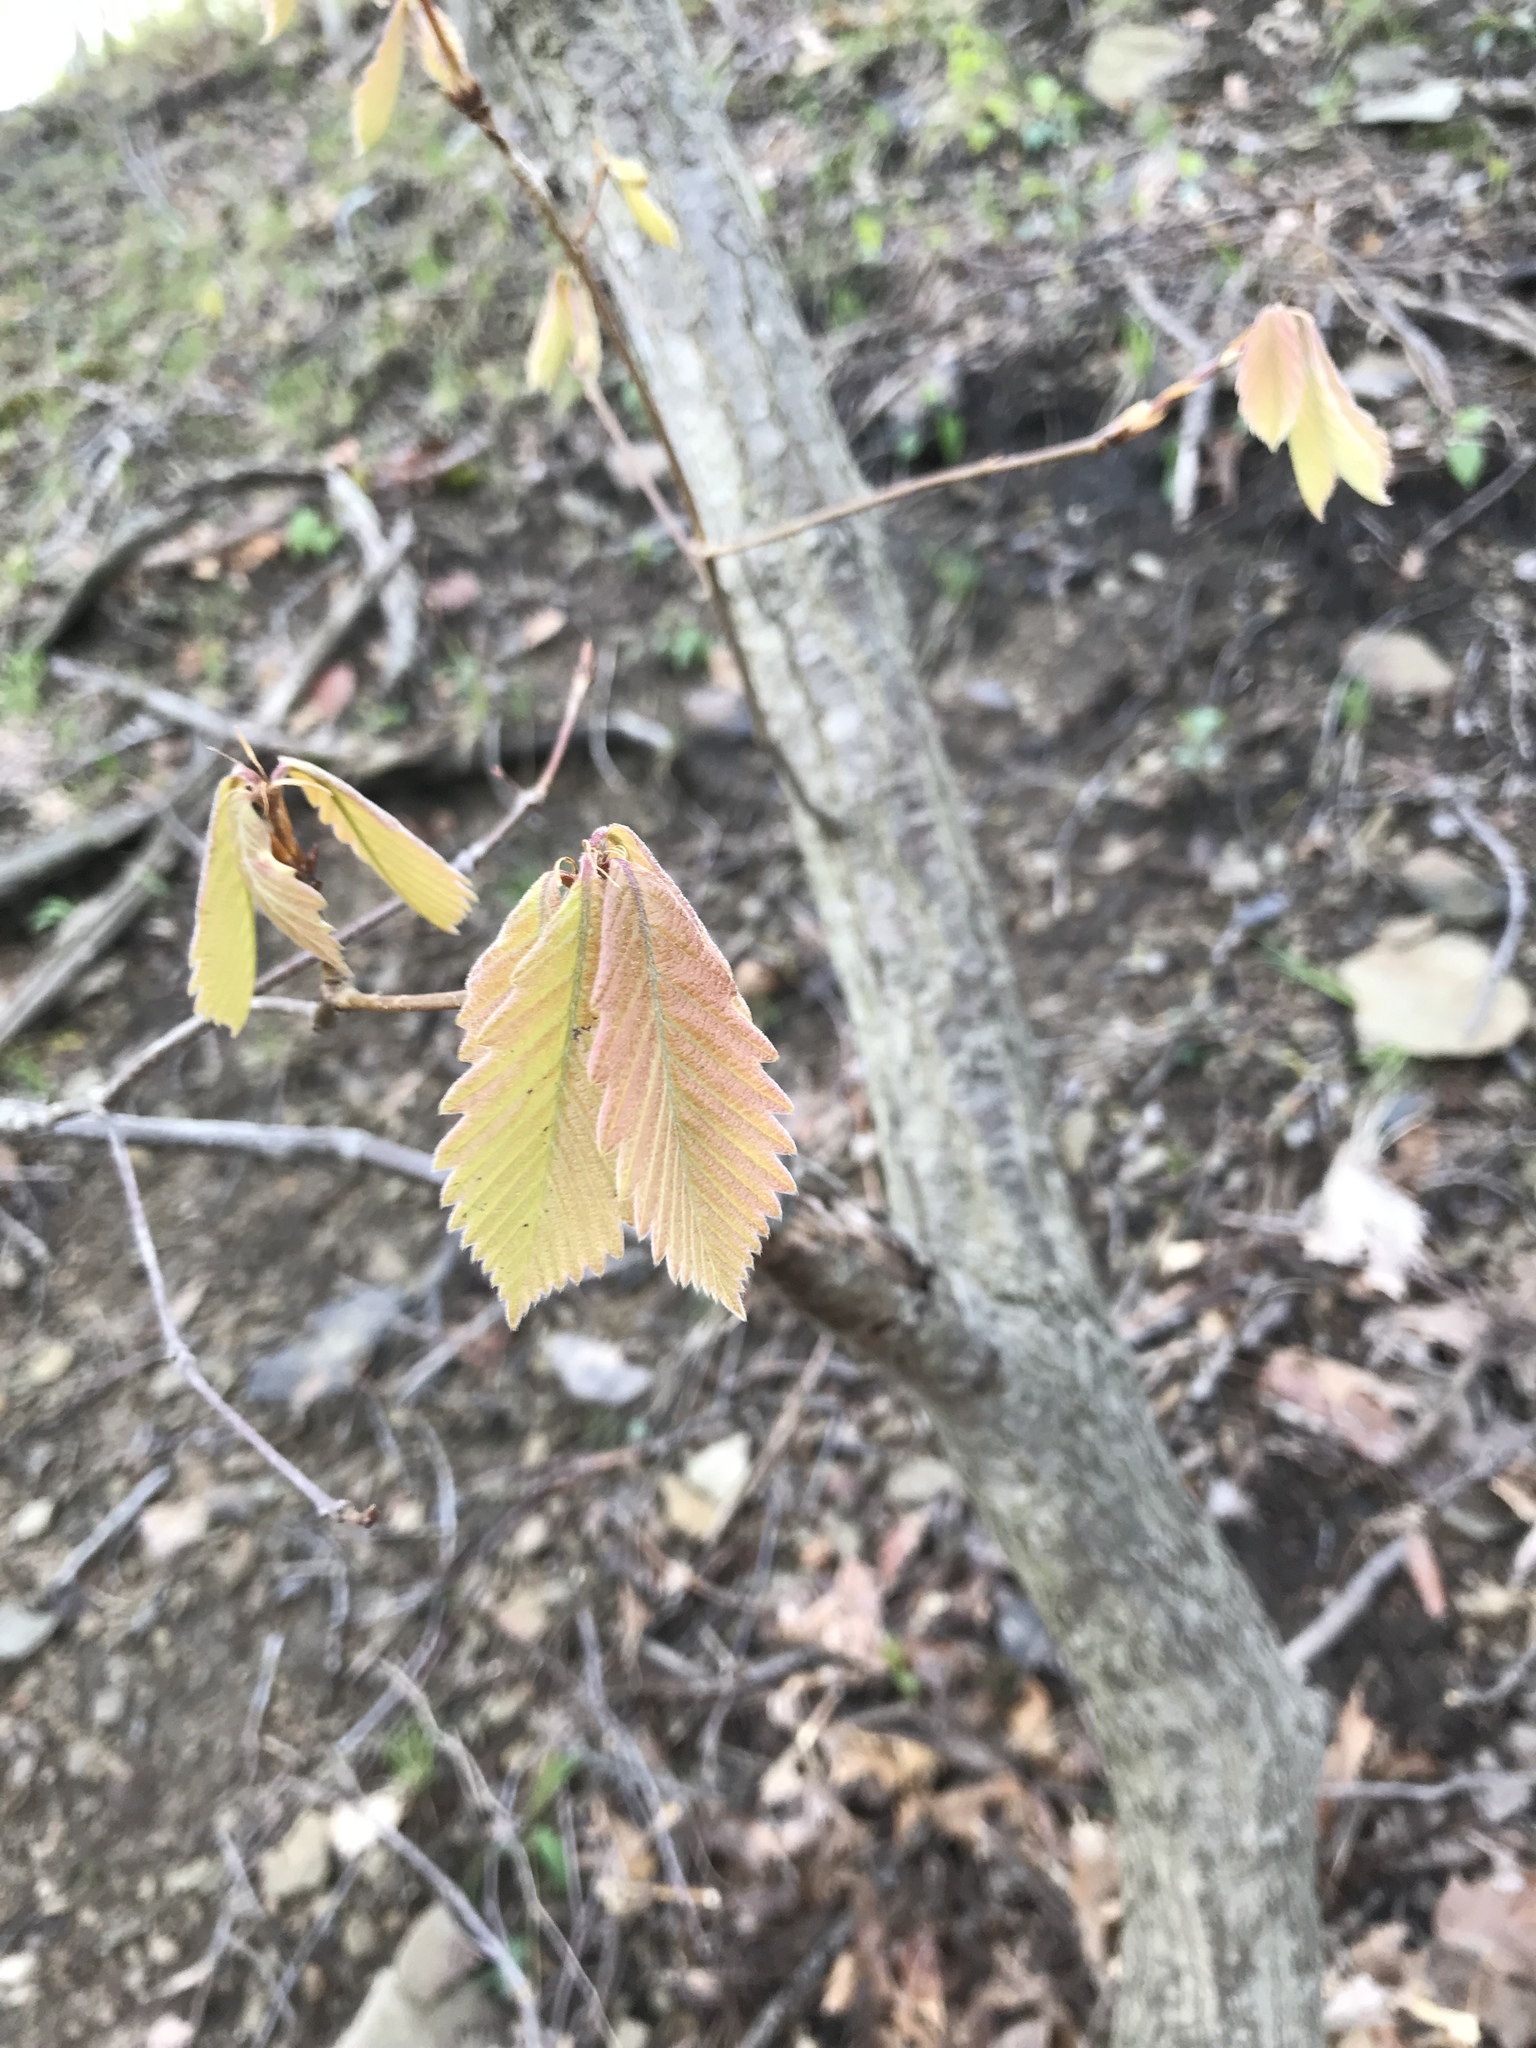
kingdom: Plantae
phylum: Tracheophyta
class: Magnoliopsida
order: Fagales
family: Fagaceae
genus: Quercus
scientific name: Quercus montana
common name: Chestnut oak
